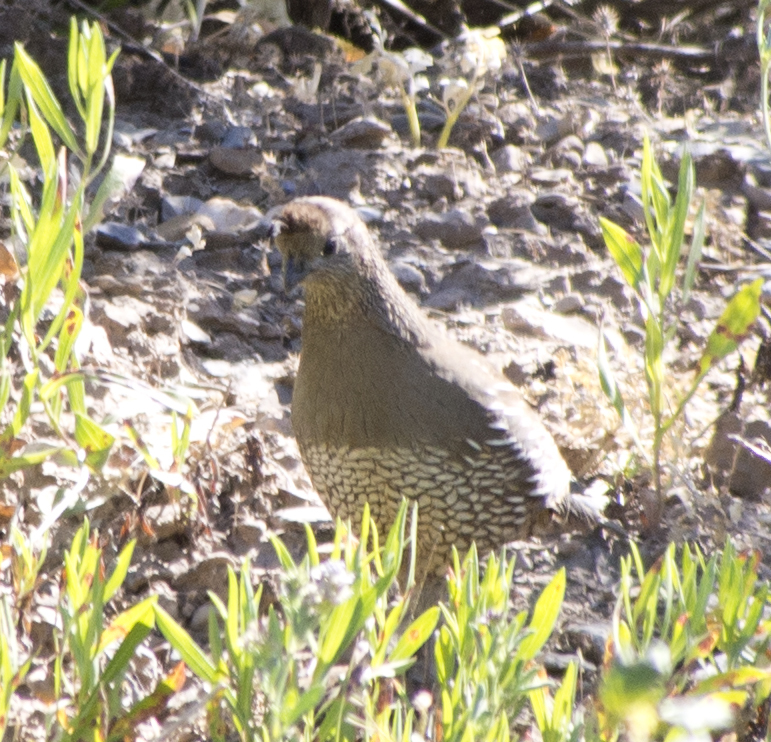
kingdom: Animalia
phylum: Chordata
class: Aves
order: Galliformes
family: Odontophoridae
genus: Callipepla
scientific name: Callipepla californica
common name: California quail
